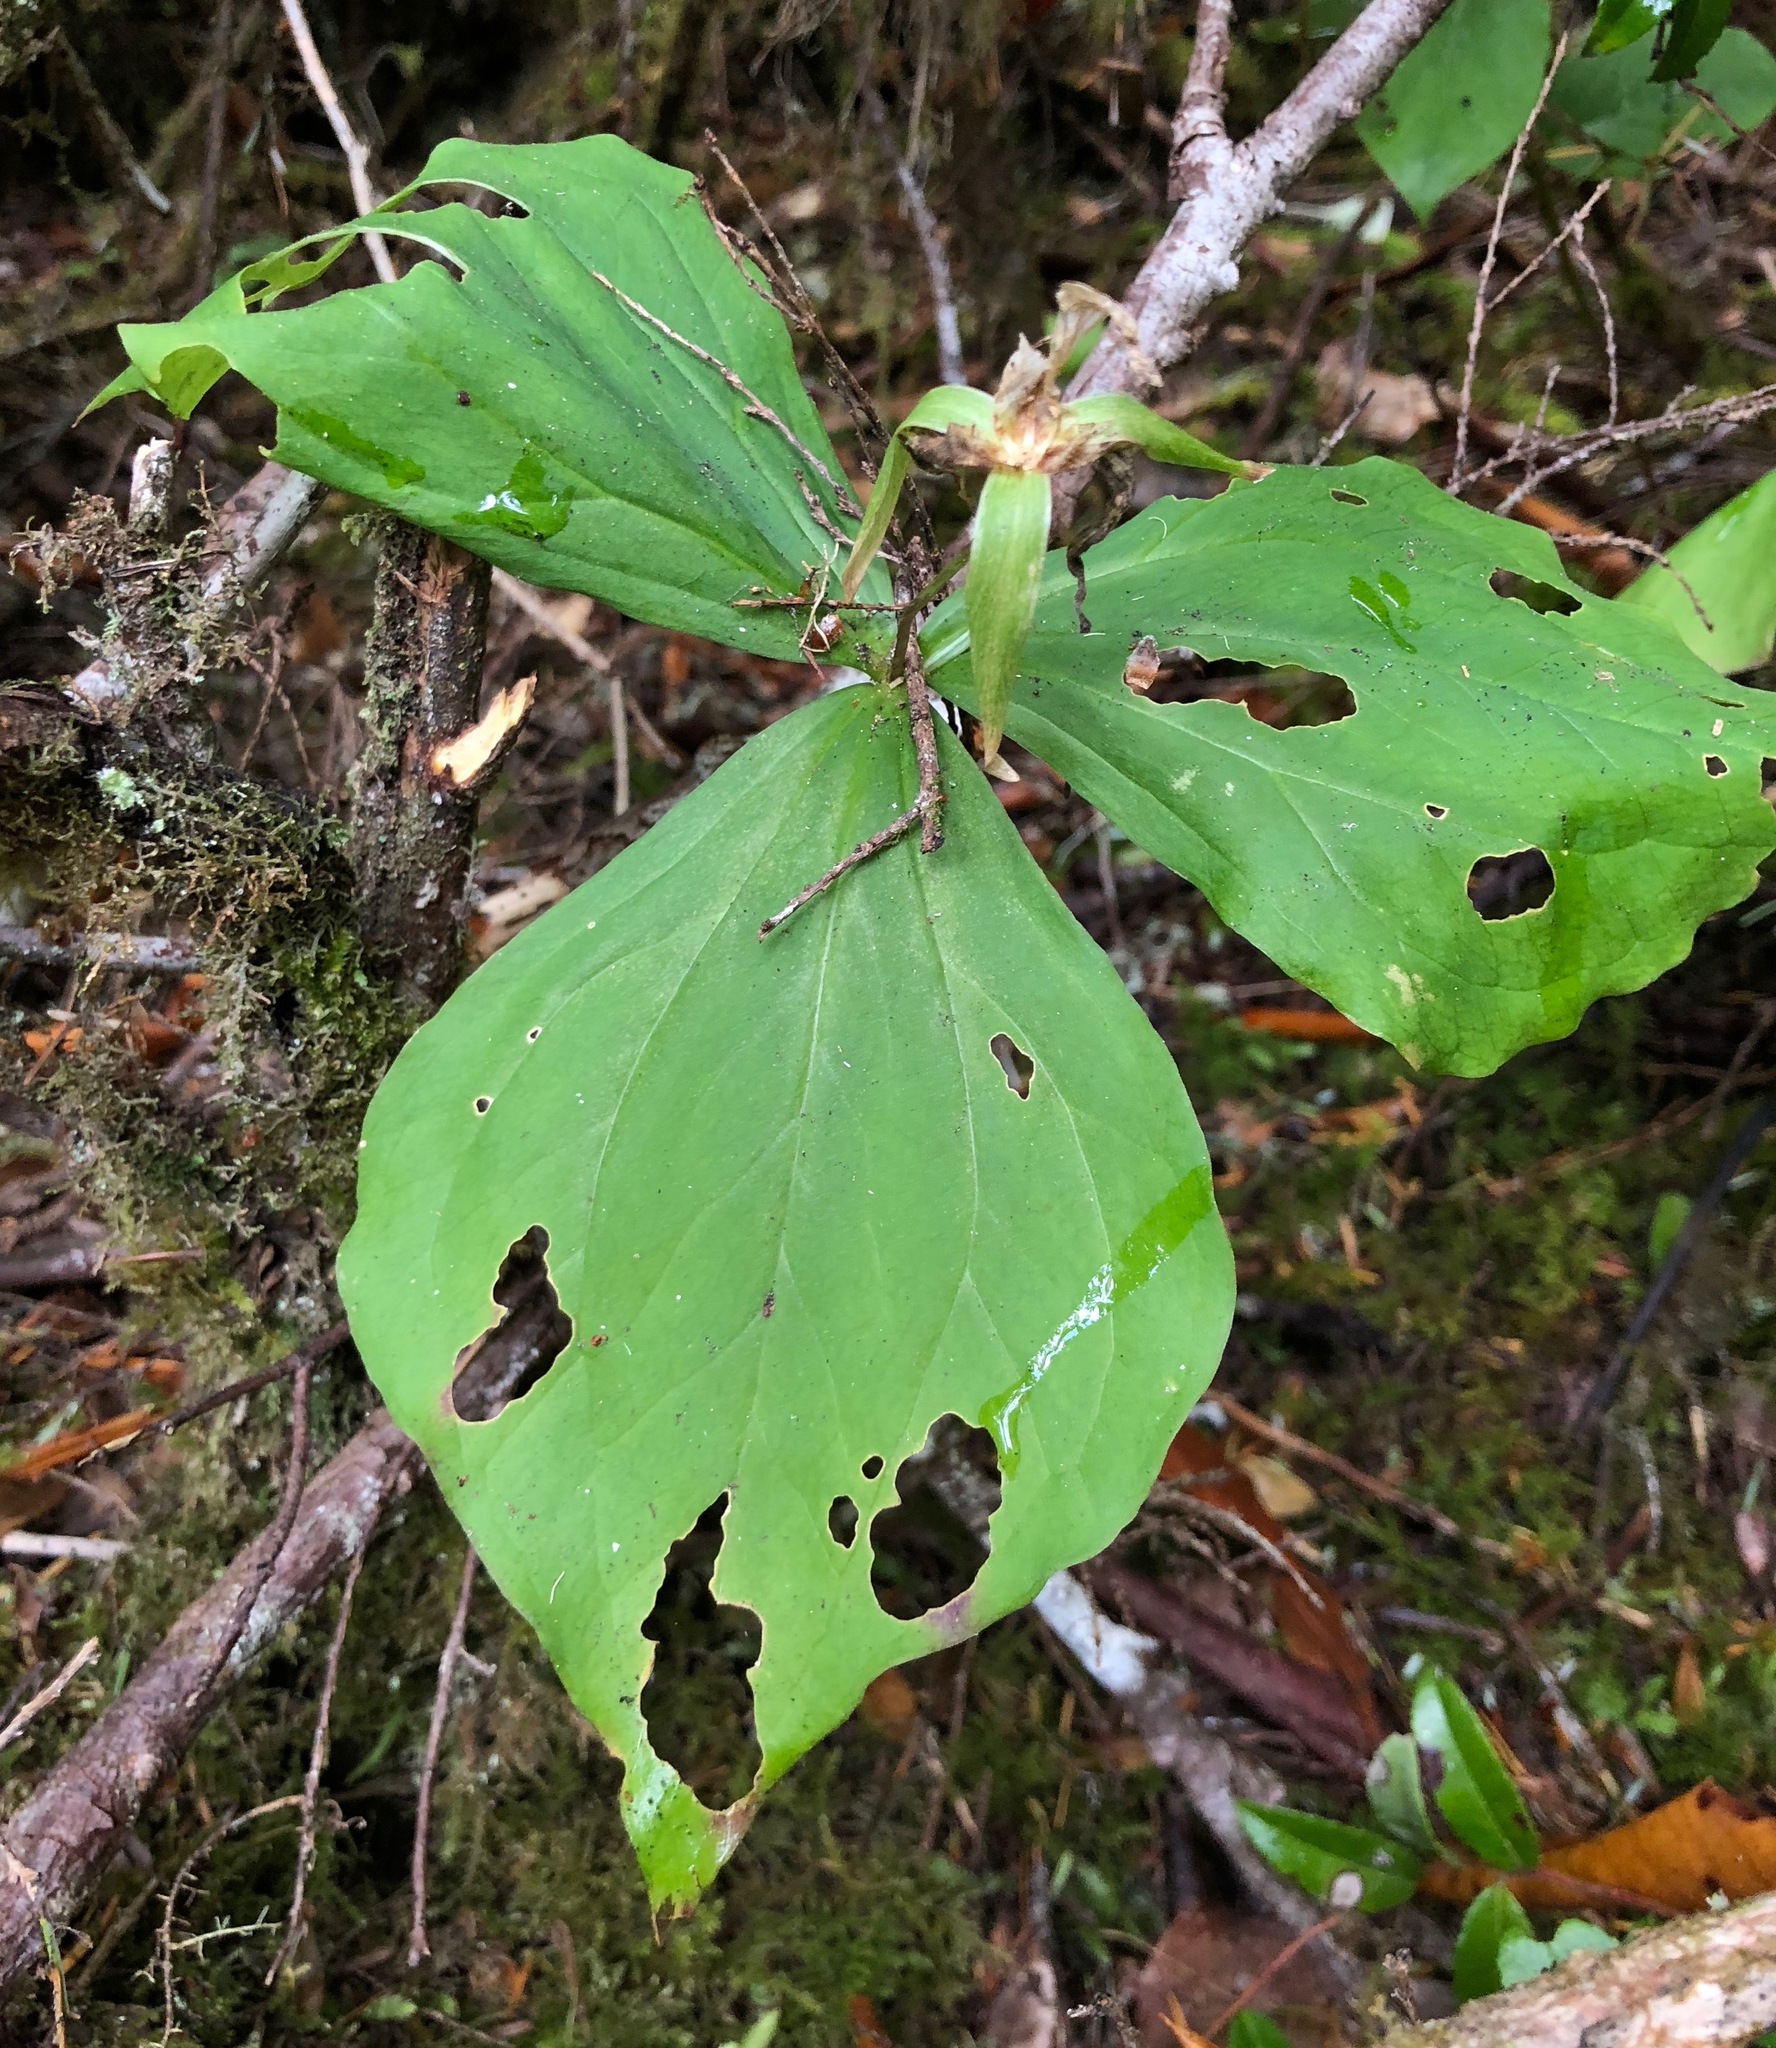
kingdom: Plantae
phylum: Tracheophyta
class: Liliopsida
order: Liliales
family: Melanthiaceae
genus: Trillium
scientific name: Trillium ovatum
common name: Pacific trillium
